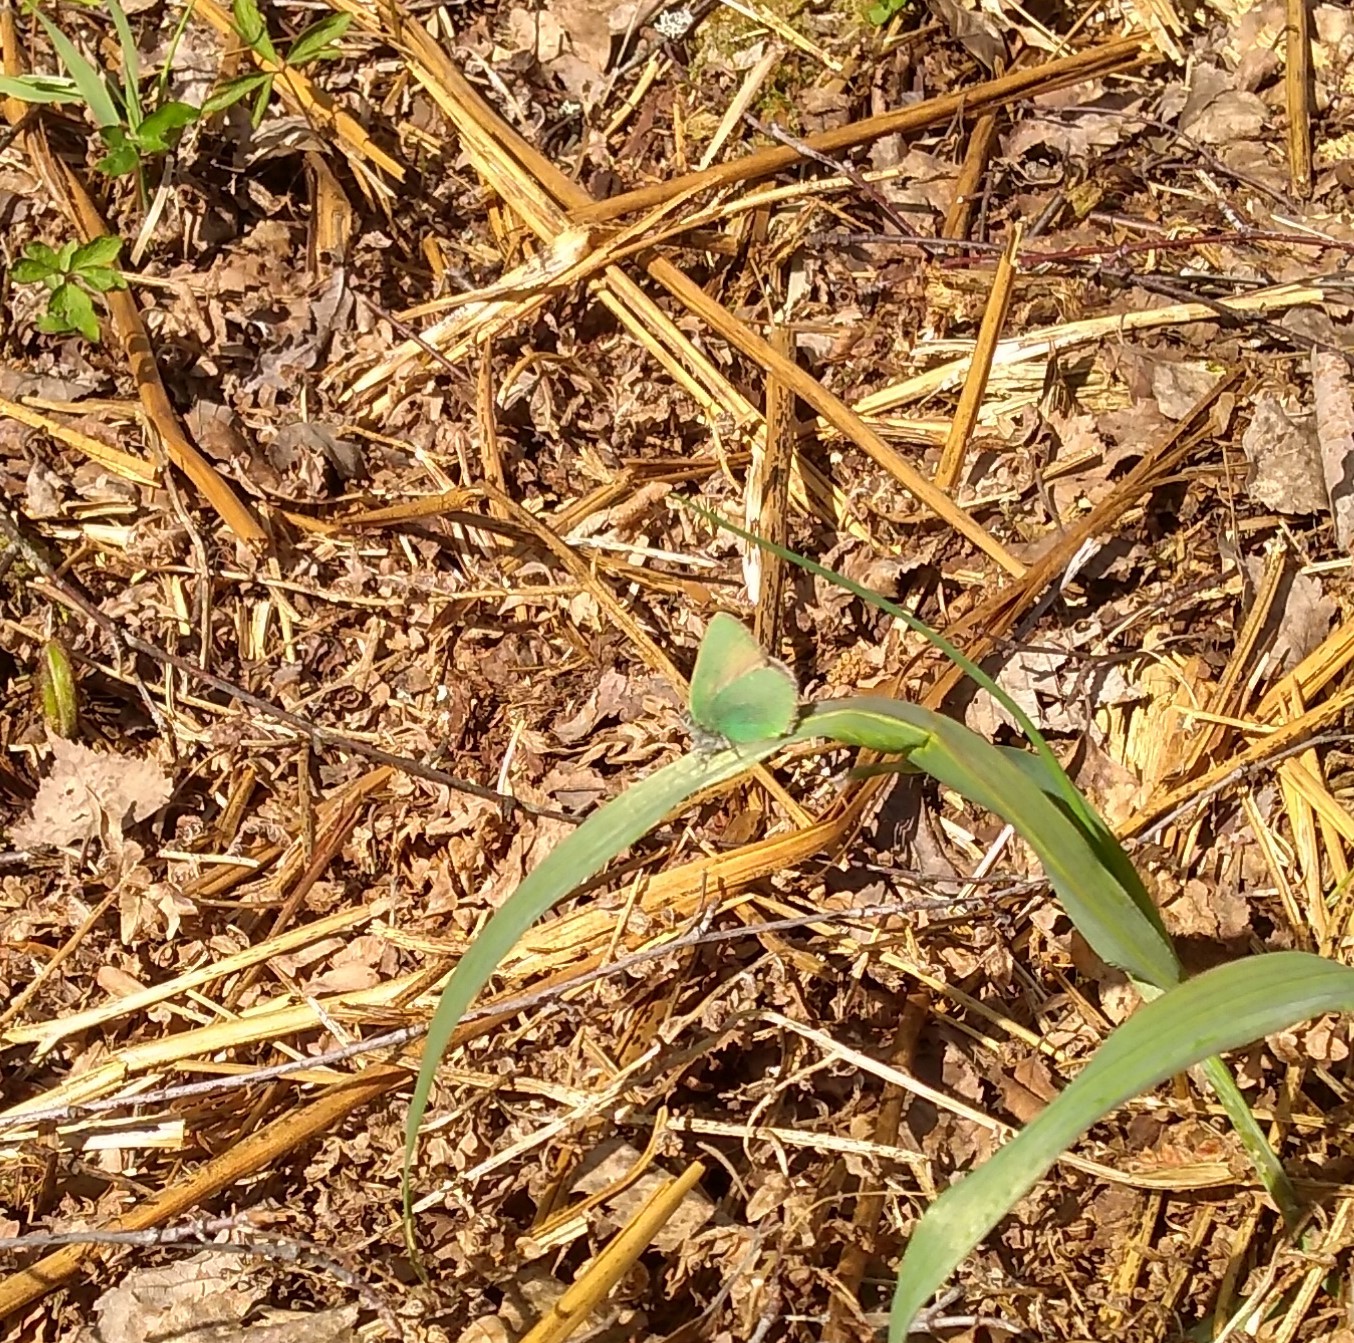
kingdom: Animalia
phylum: Arthropoda
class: Insecta
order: Lepidoptera
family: Lycaenidae
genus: Callophrys
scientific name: Callophrys rubi
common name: Green hairstreak
